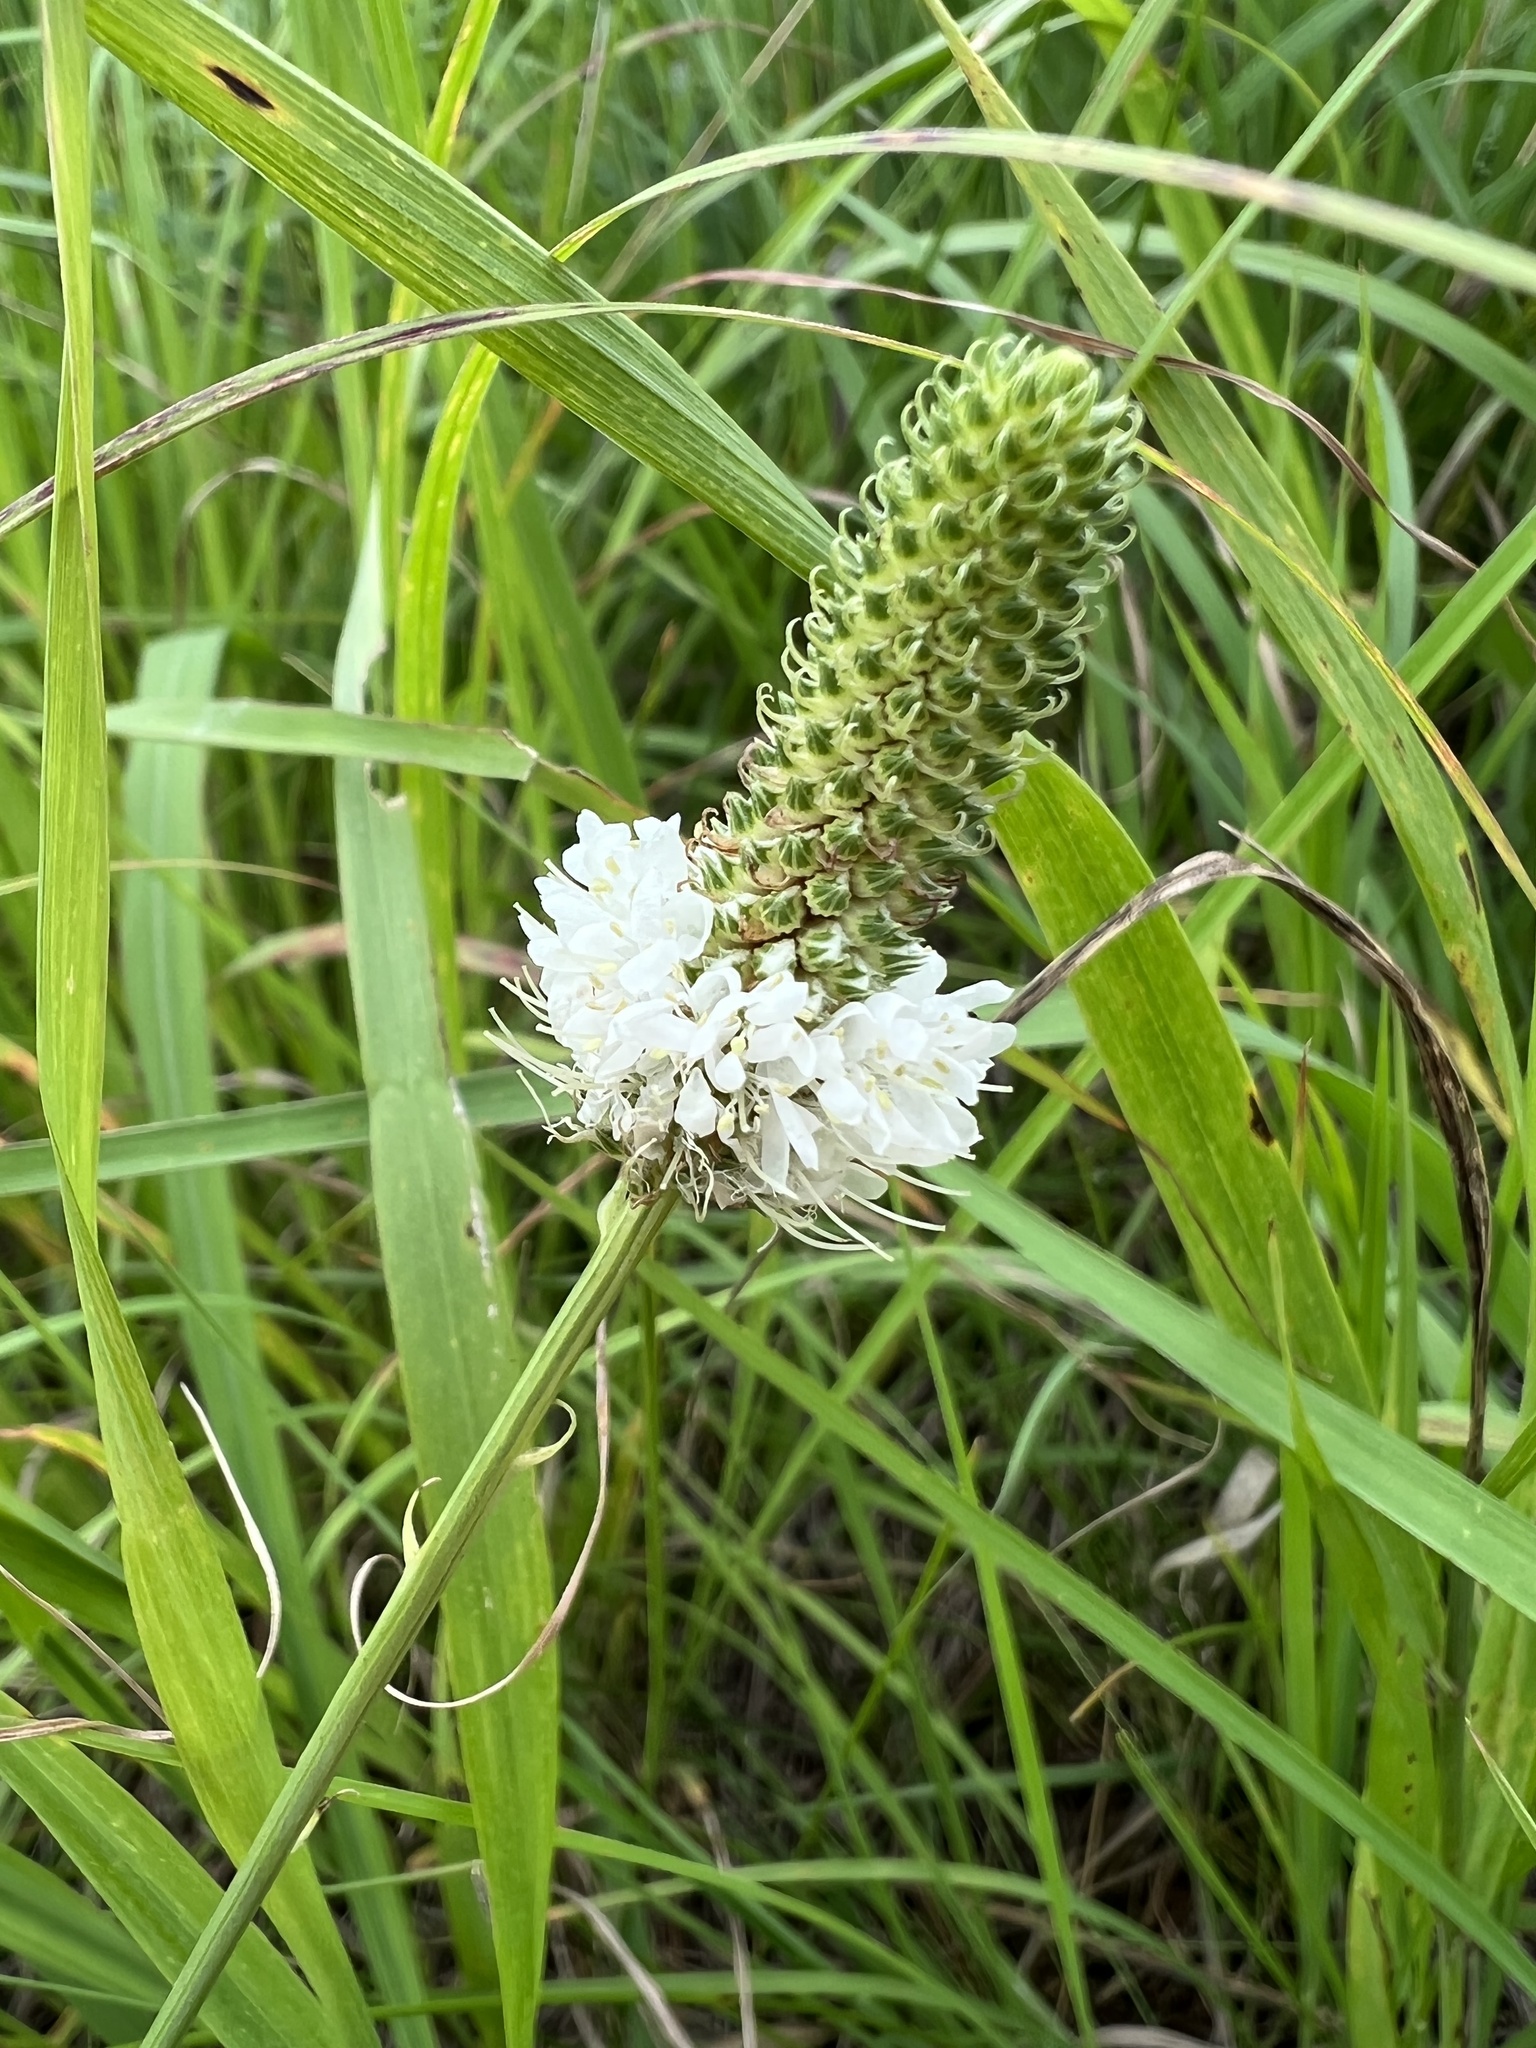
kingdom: Plantae
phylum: Tracheophyta
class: Magnoliopsida
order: Fabales
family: Fabaceae
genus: Dalea
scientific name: Dalea candida
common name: White prairie-clover
